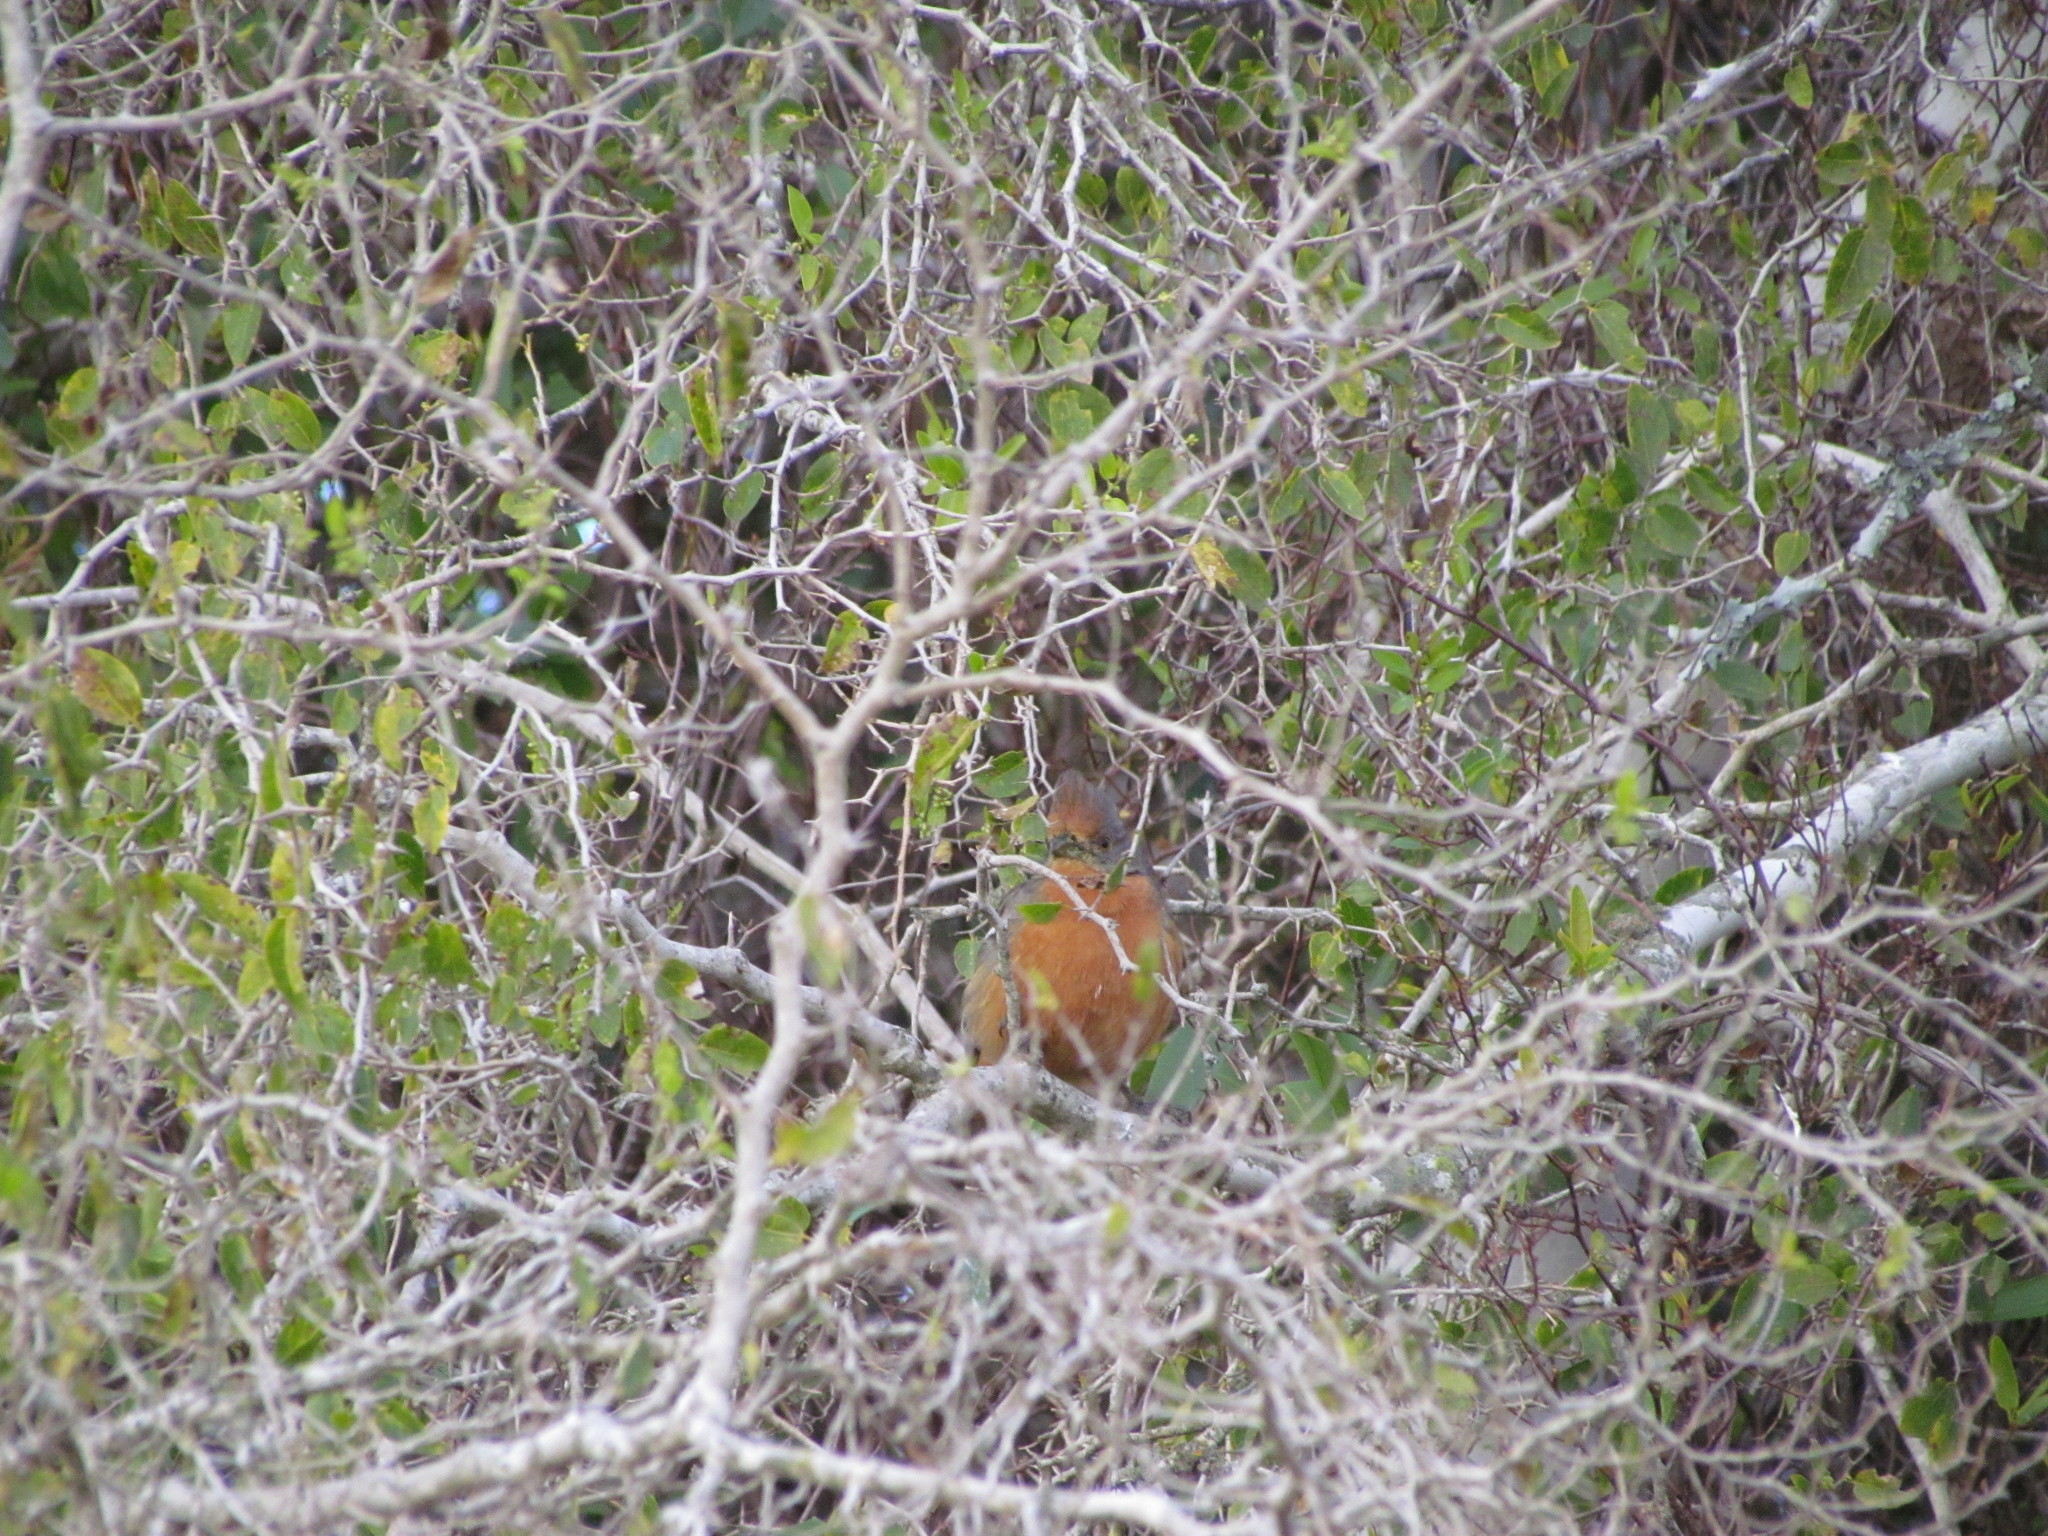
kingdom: Animalia
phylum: Chordata
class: Aves
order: Passeriformes
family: Cotingidae
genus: Phytotoma
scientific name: Phytotoma rutila
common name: White-tipped plantcutter
